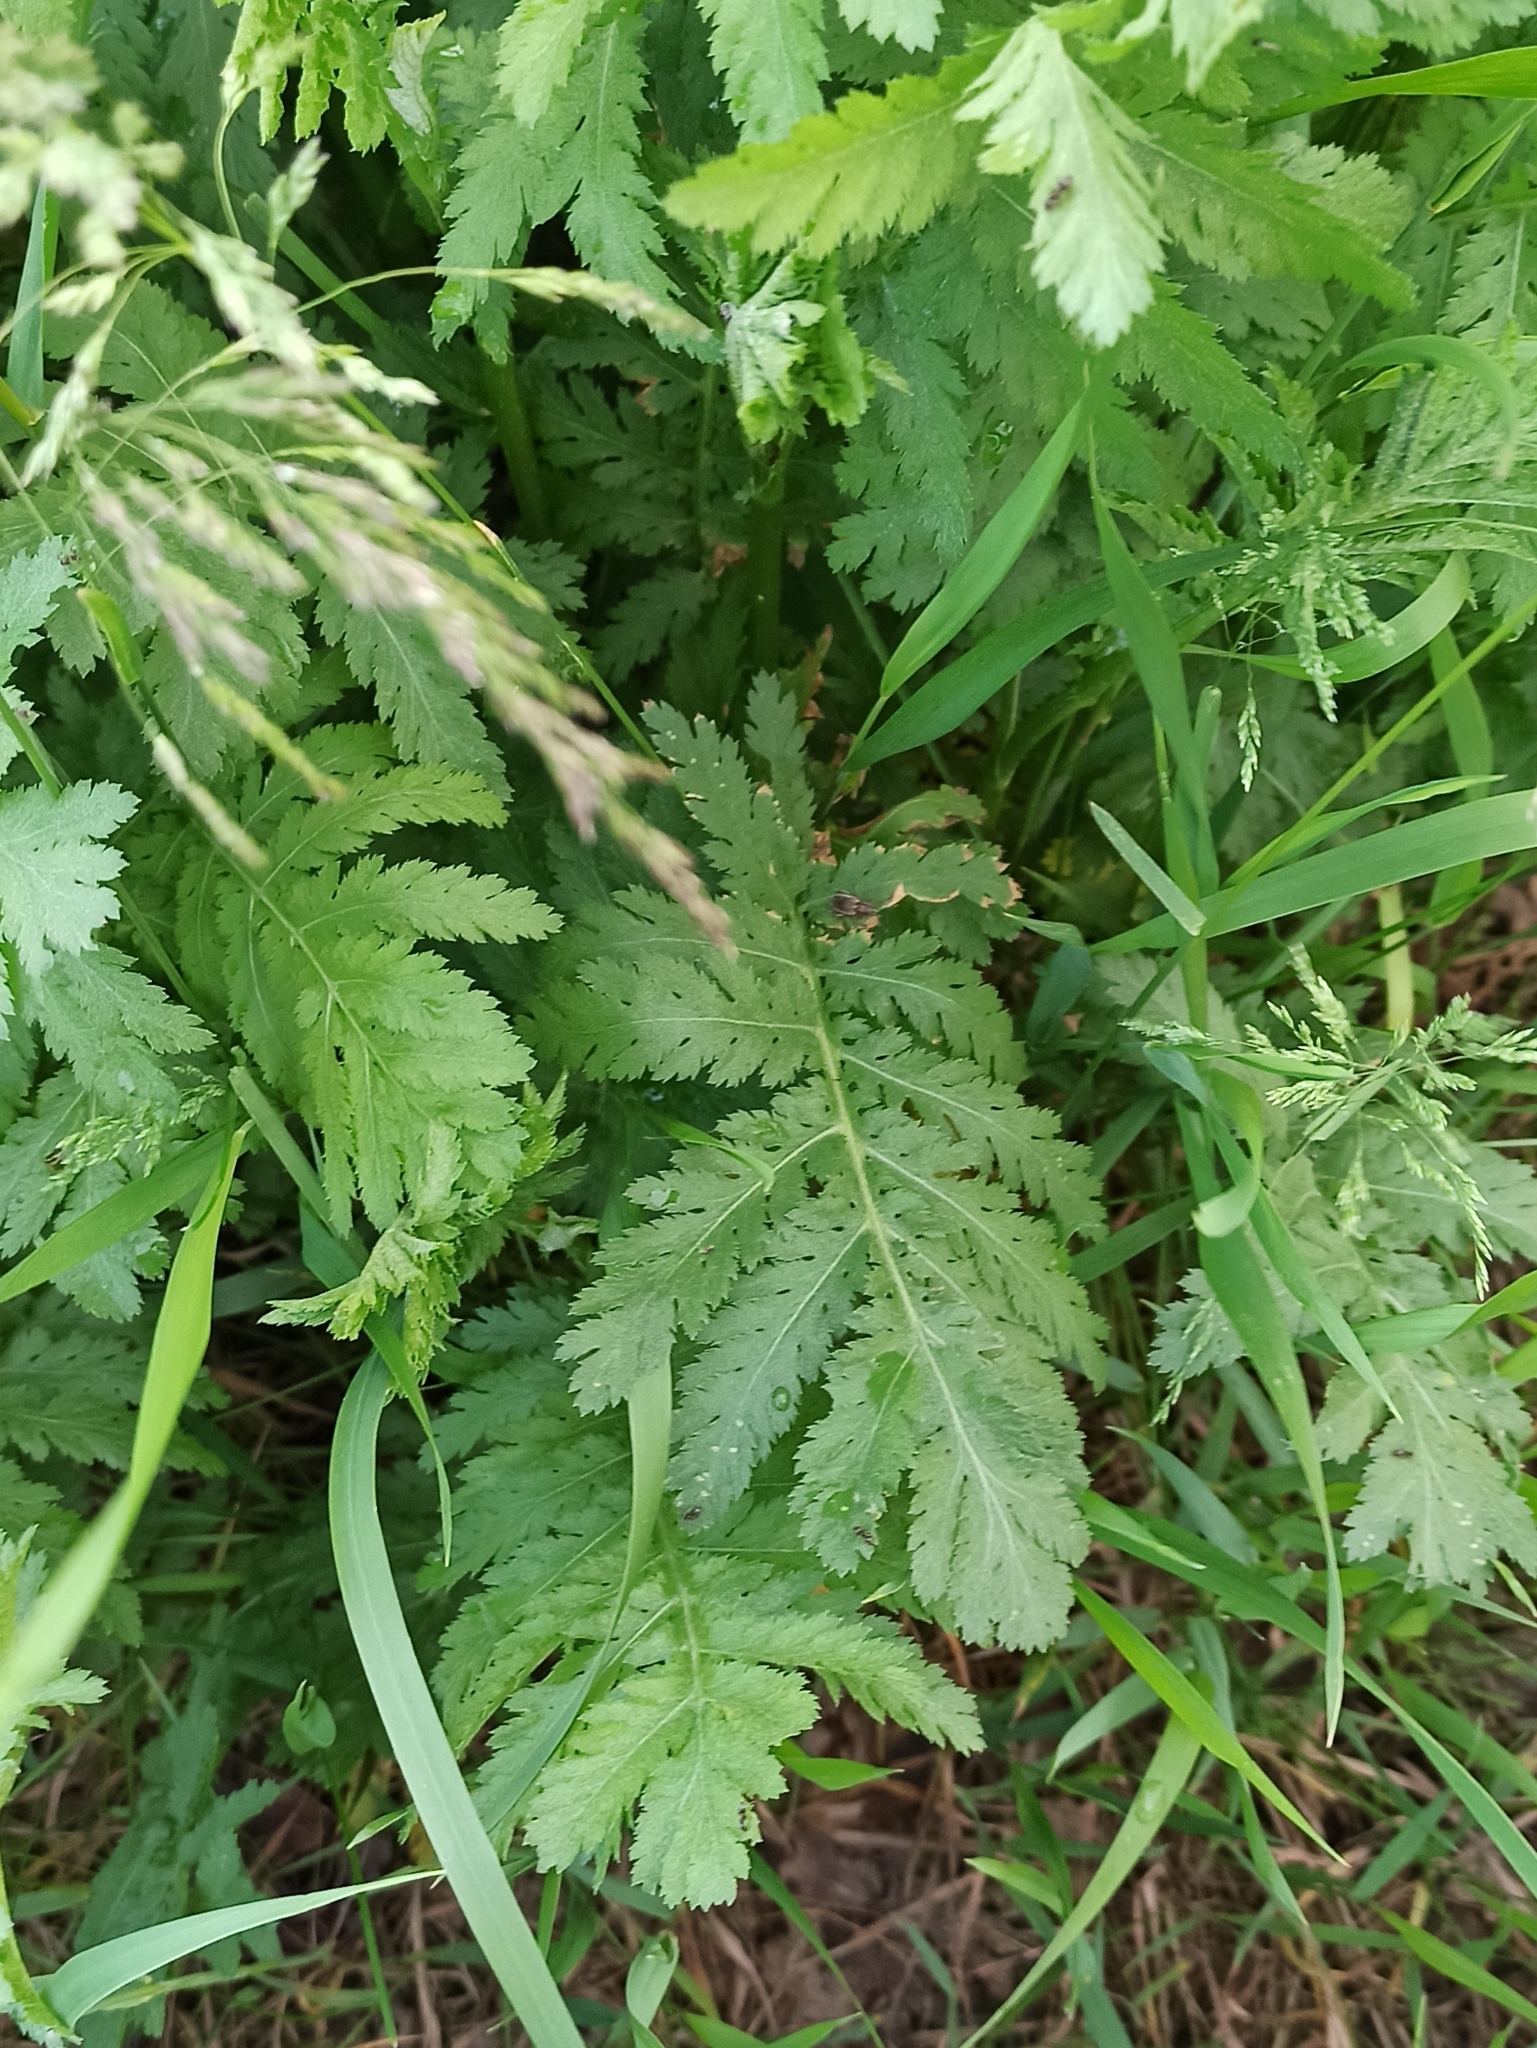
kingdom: Plantae
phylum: Tracheophyta
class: Magnoliopsida
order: Asterales
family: Asteraceae
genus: Tanacetum
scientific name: Tanacetum vulgare
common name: Common tansy
